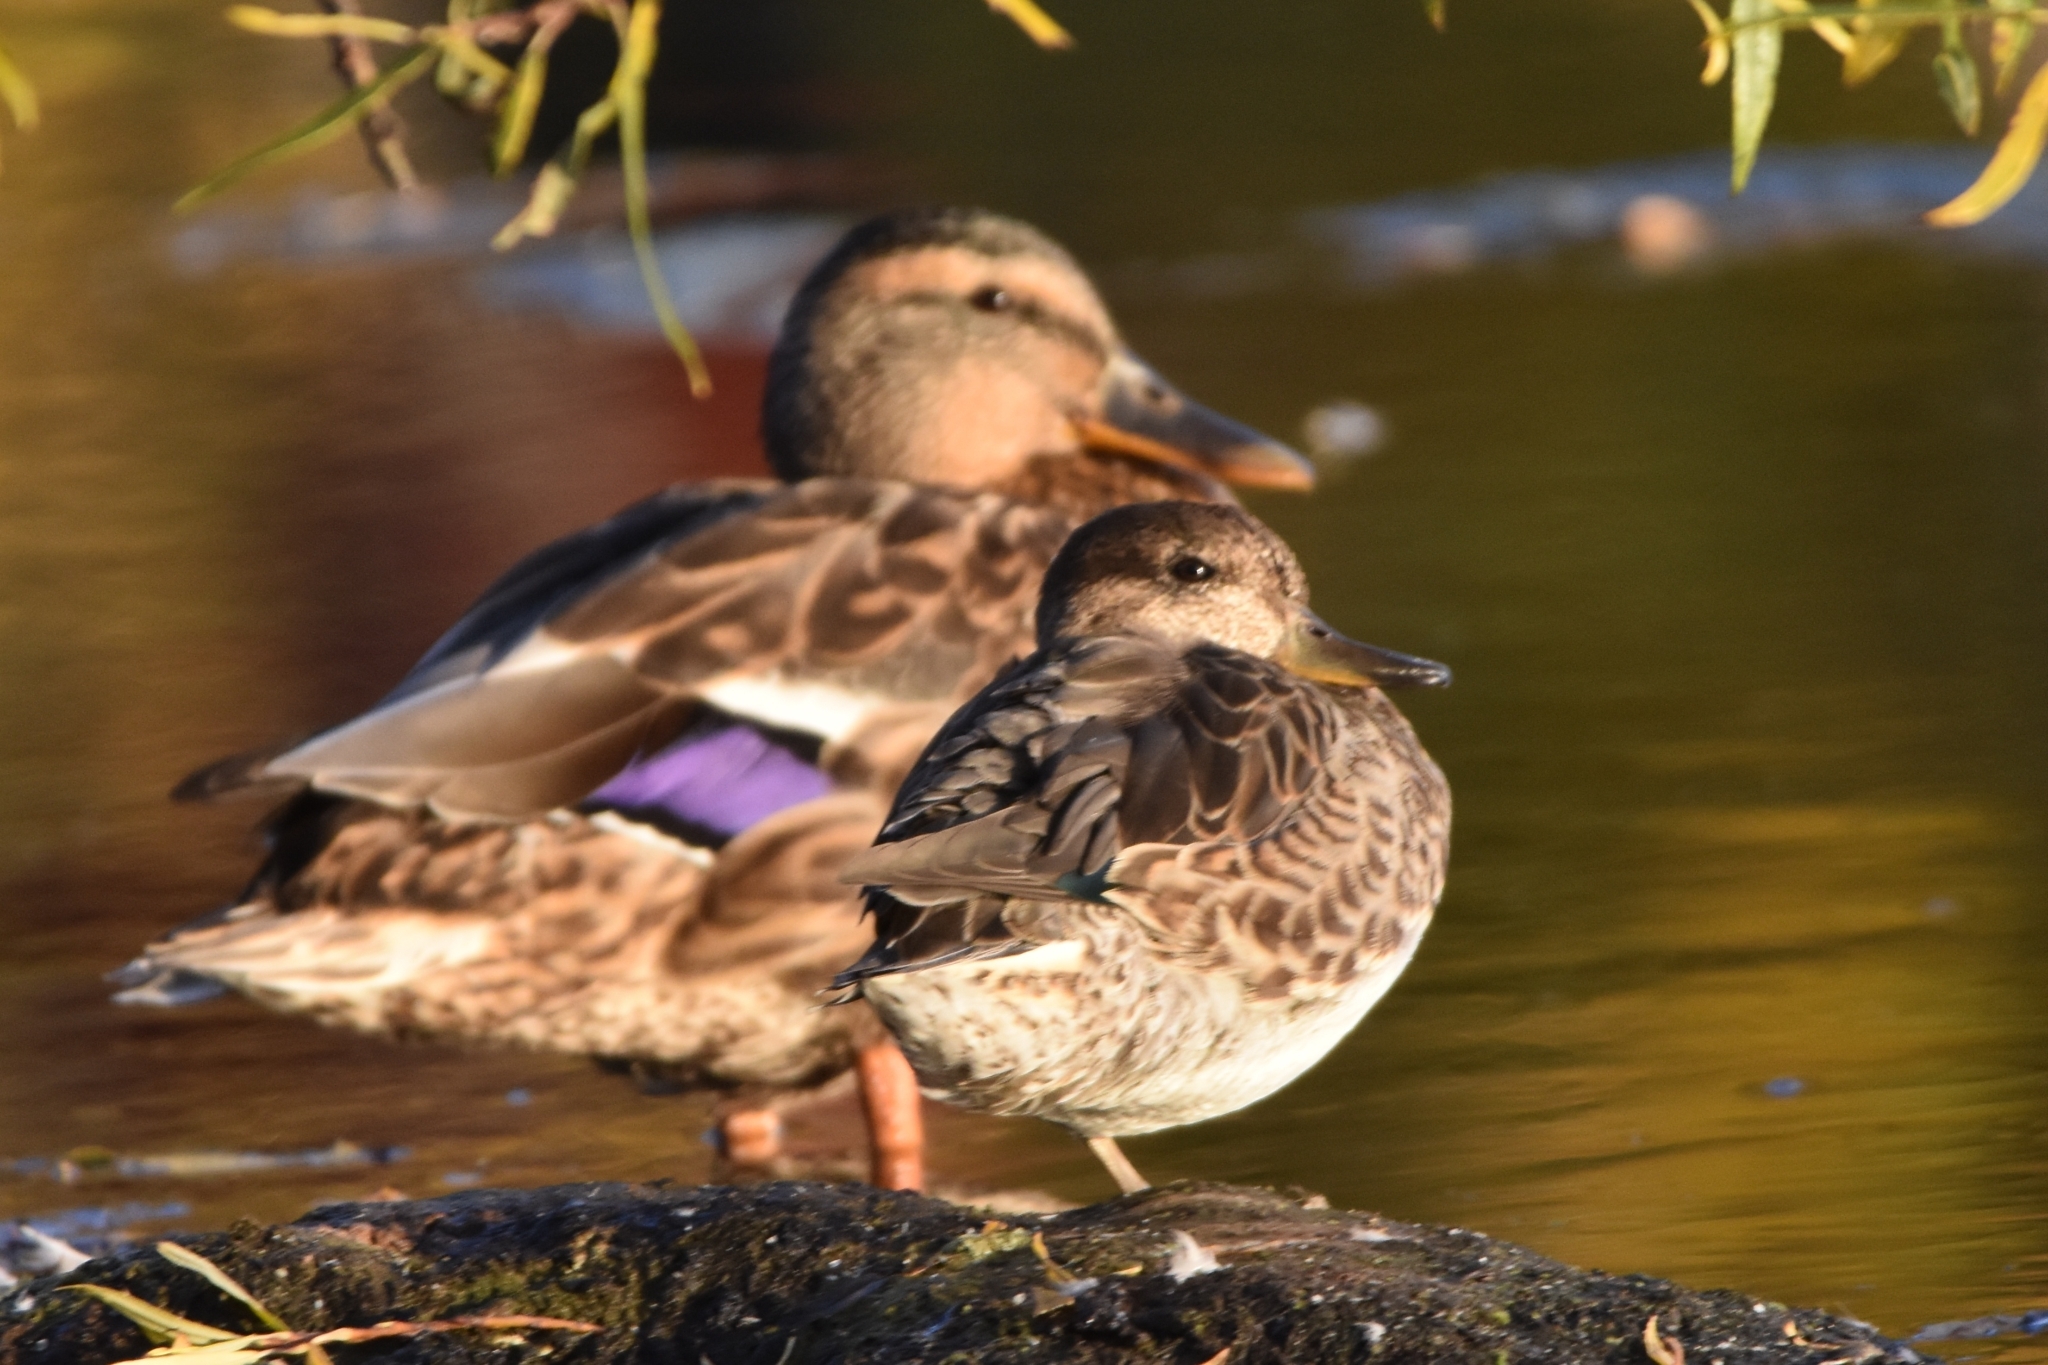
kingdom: Animalia
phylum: Chordata
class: Aves
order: Anseriformes
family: Anatidae
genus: Anas
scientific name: Anas crecca
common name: Eurasian teal
